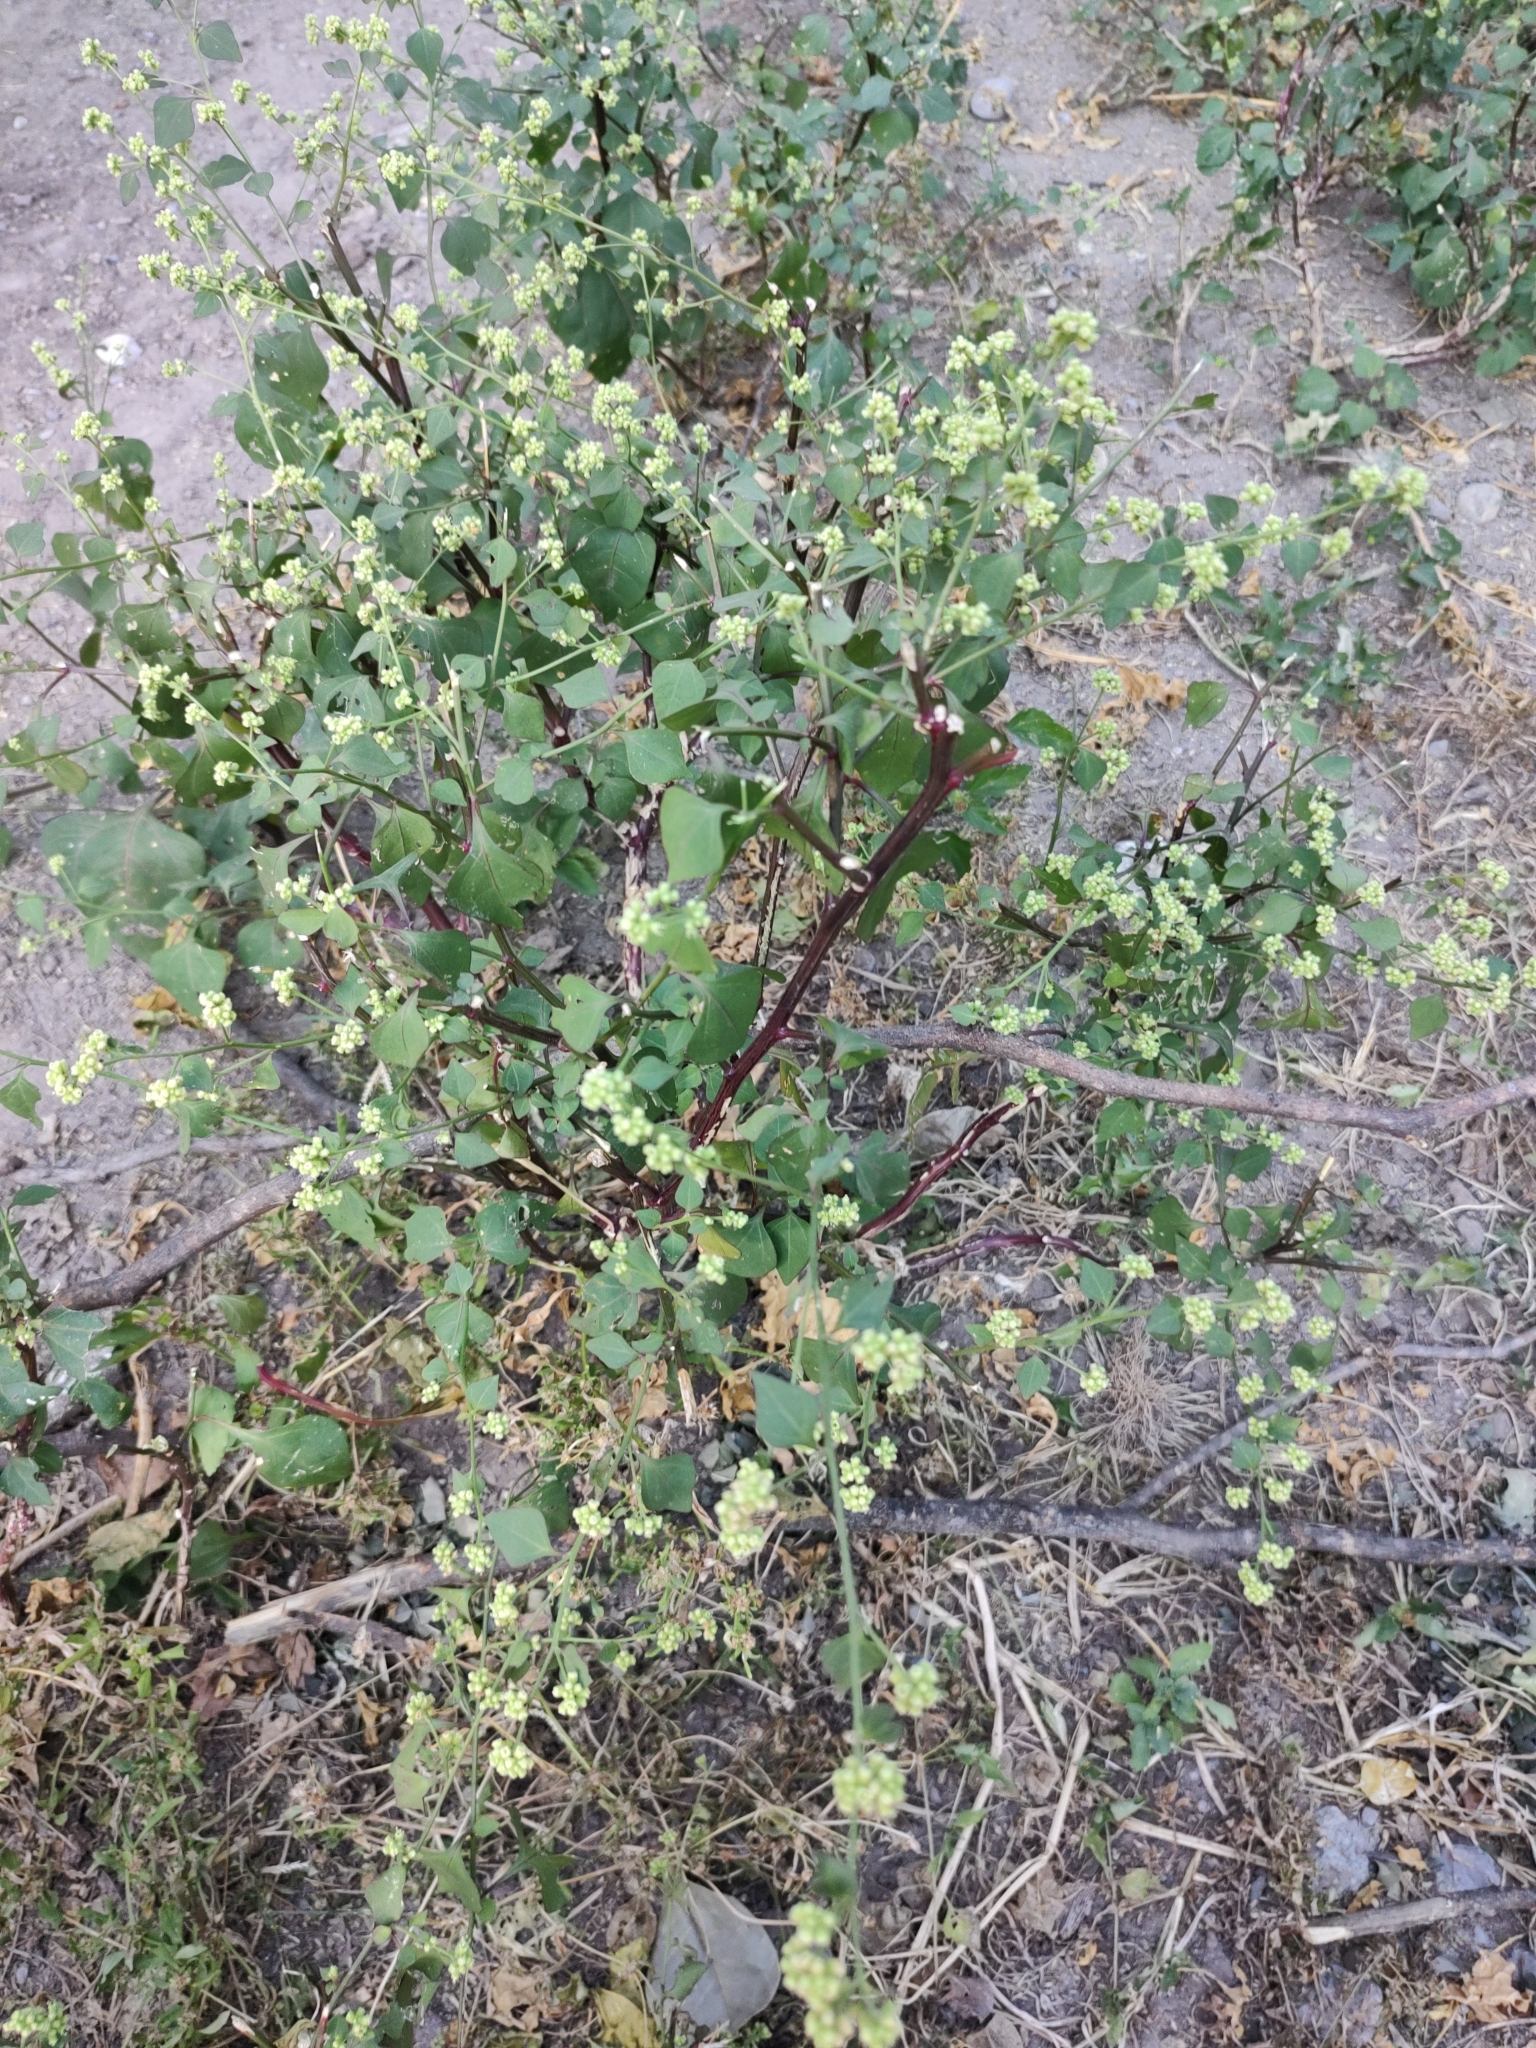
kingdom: Plantae
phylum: Tracheophyta
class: Magnoliopsida
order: Caryophyllales
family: Nyctaginaceae
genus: Boldoa
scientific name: Boldoa purpurascens
